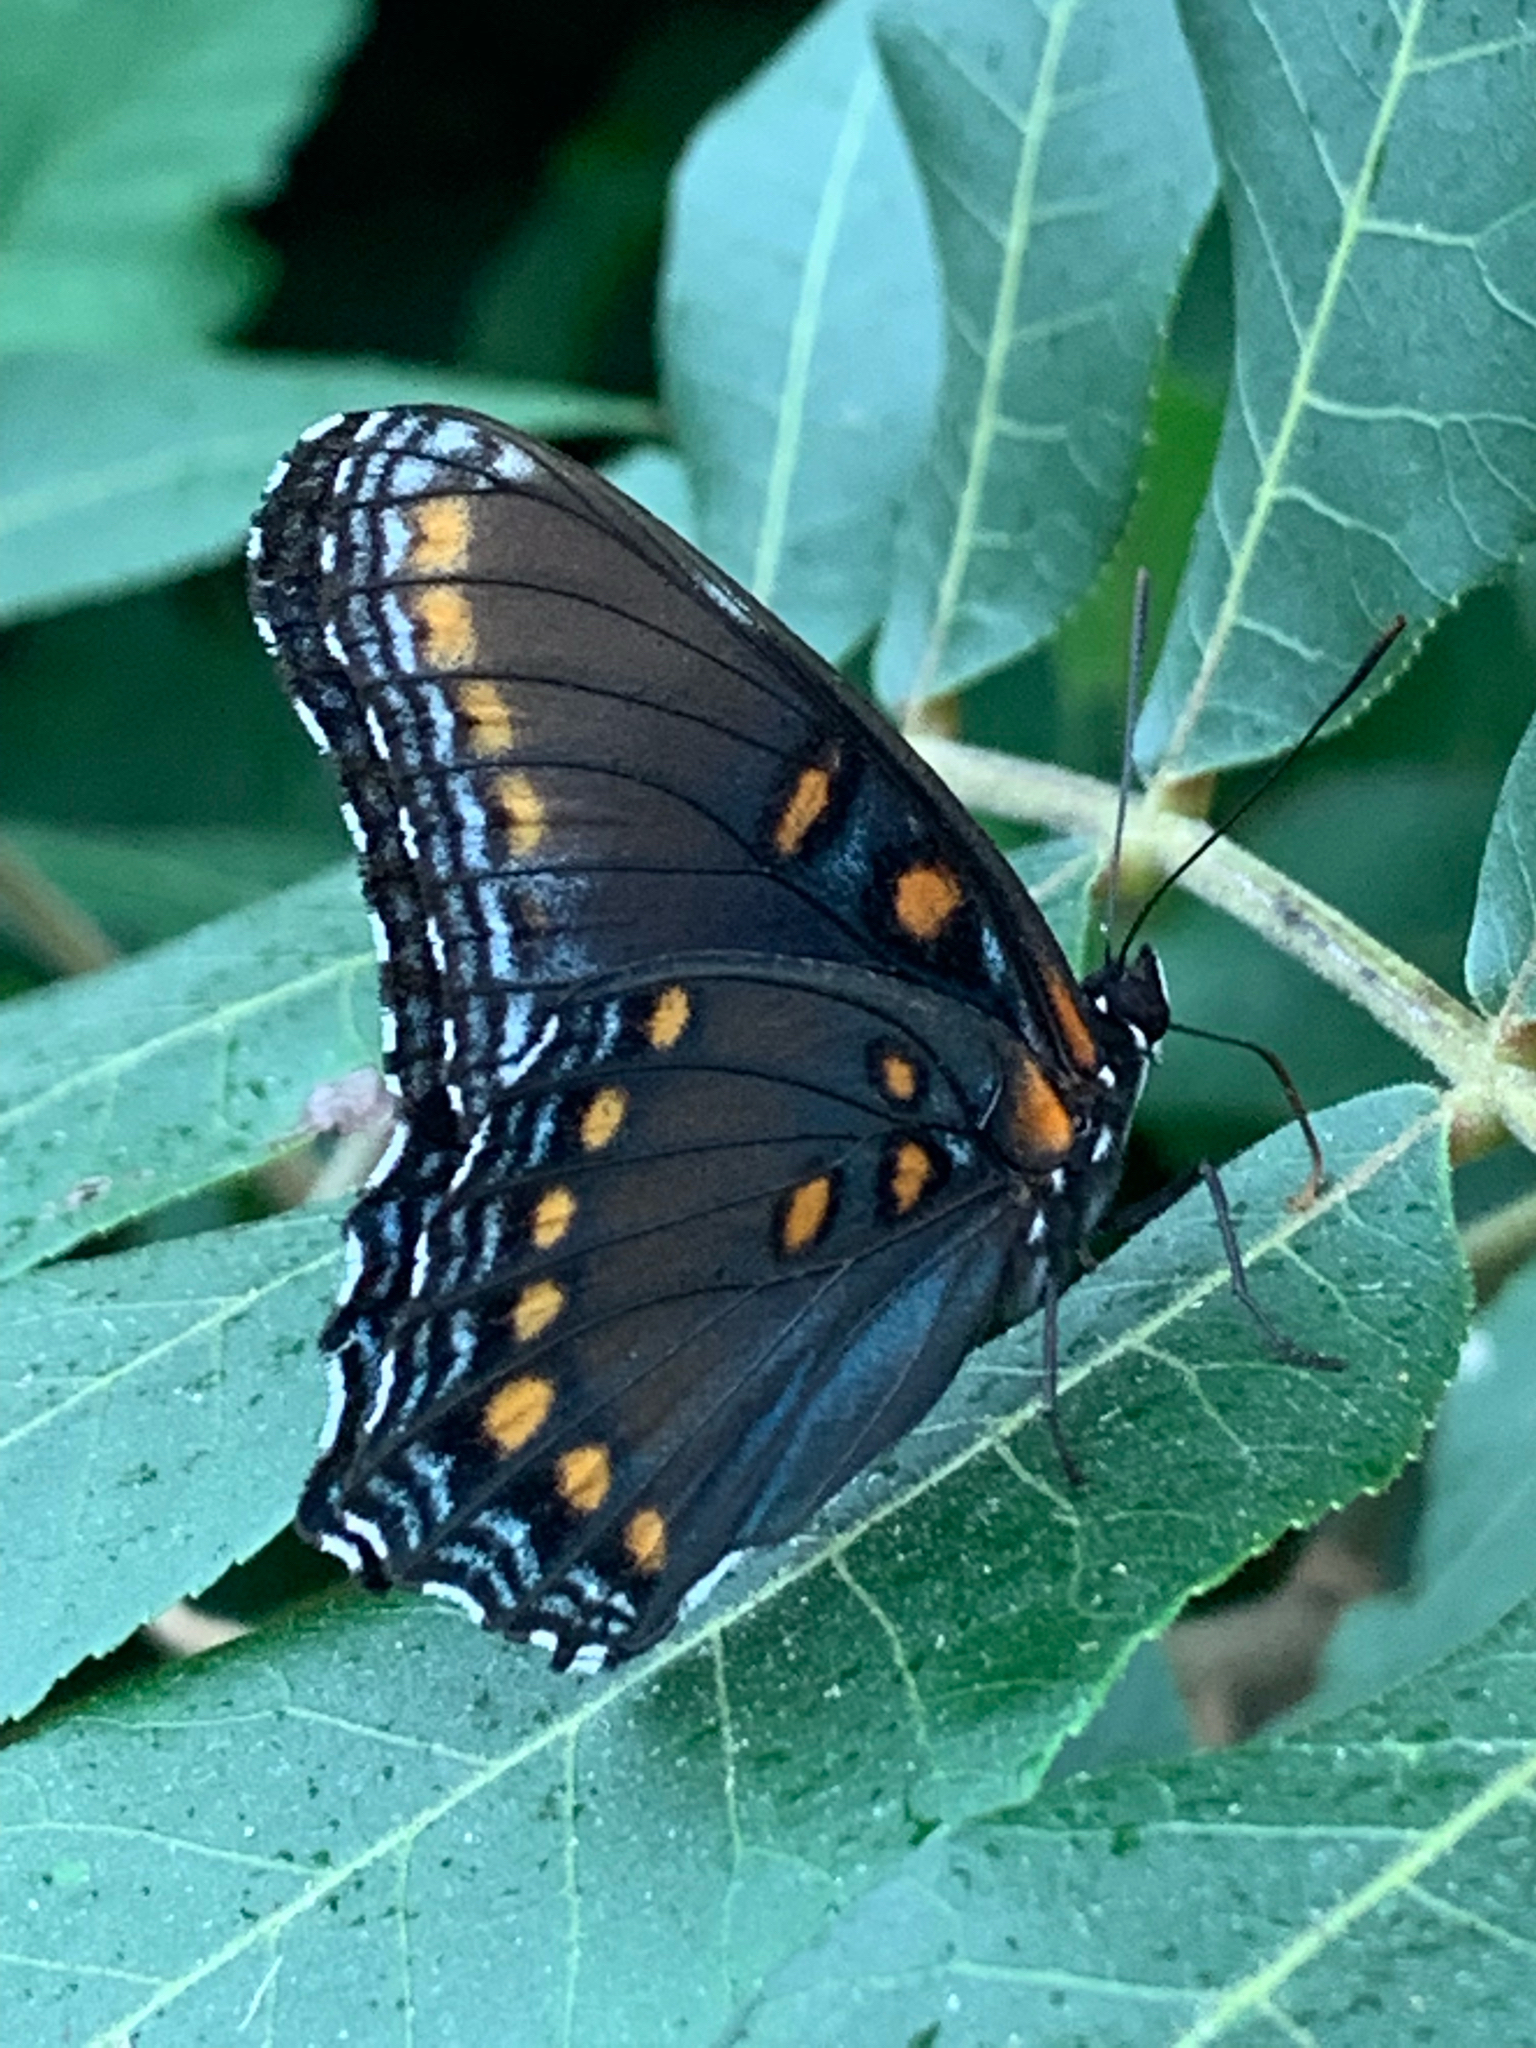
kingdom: Animalia
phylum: Arthropoda
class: Insecta
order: Lepidoptera
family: Nymphalidae
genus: Limenitis
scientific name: Limenitis arthemis
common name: Red-spotted admiral
